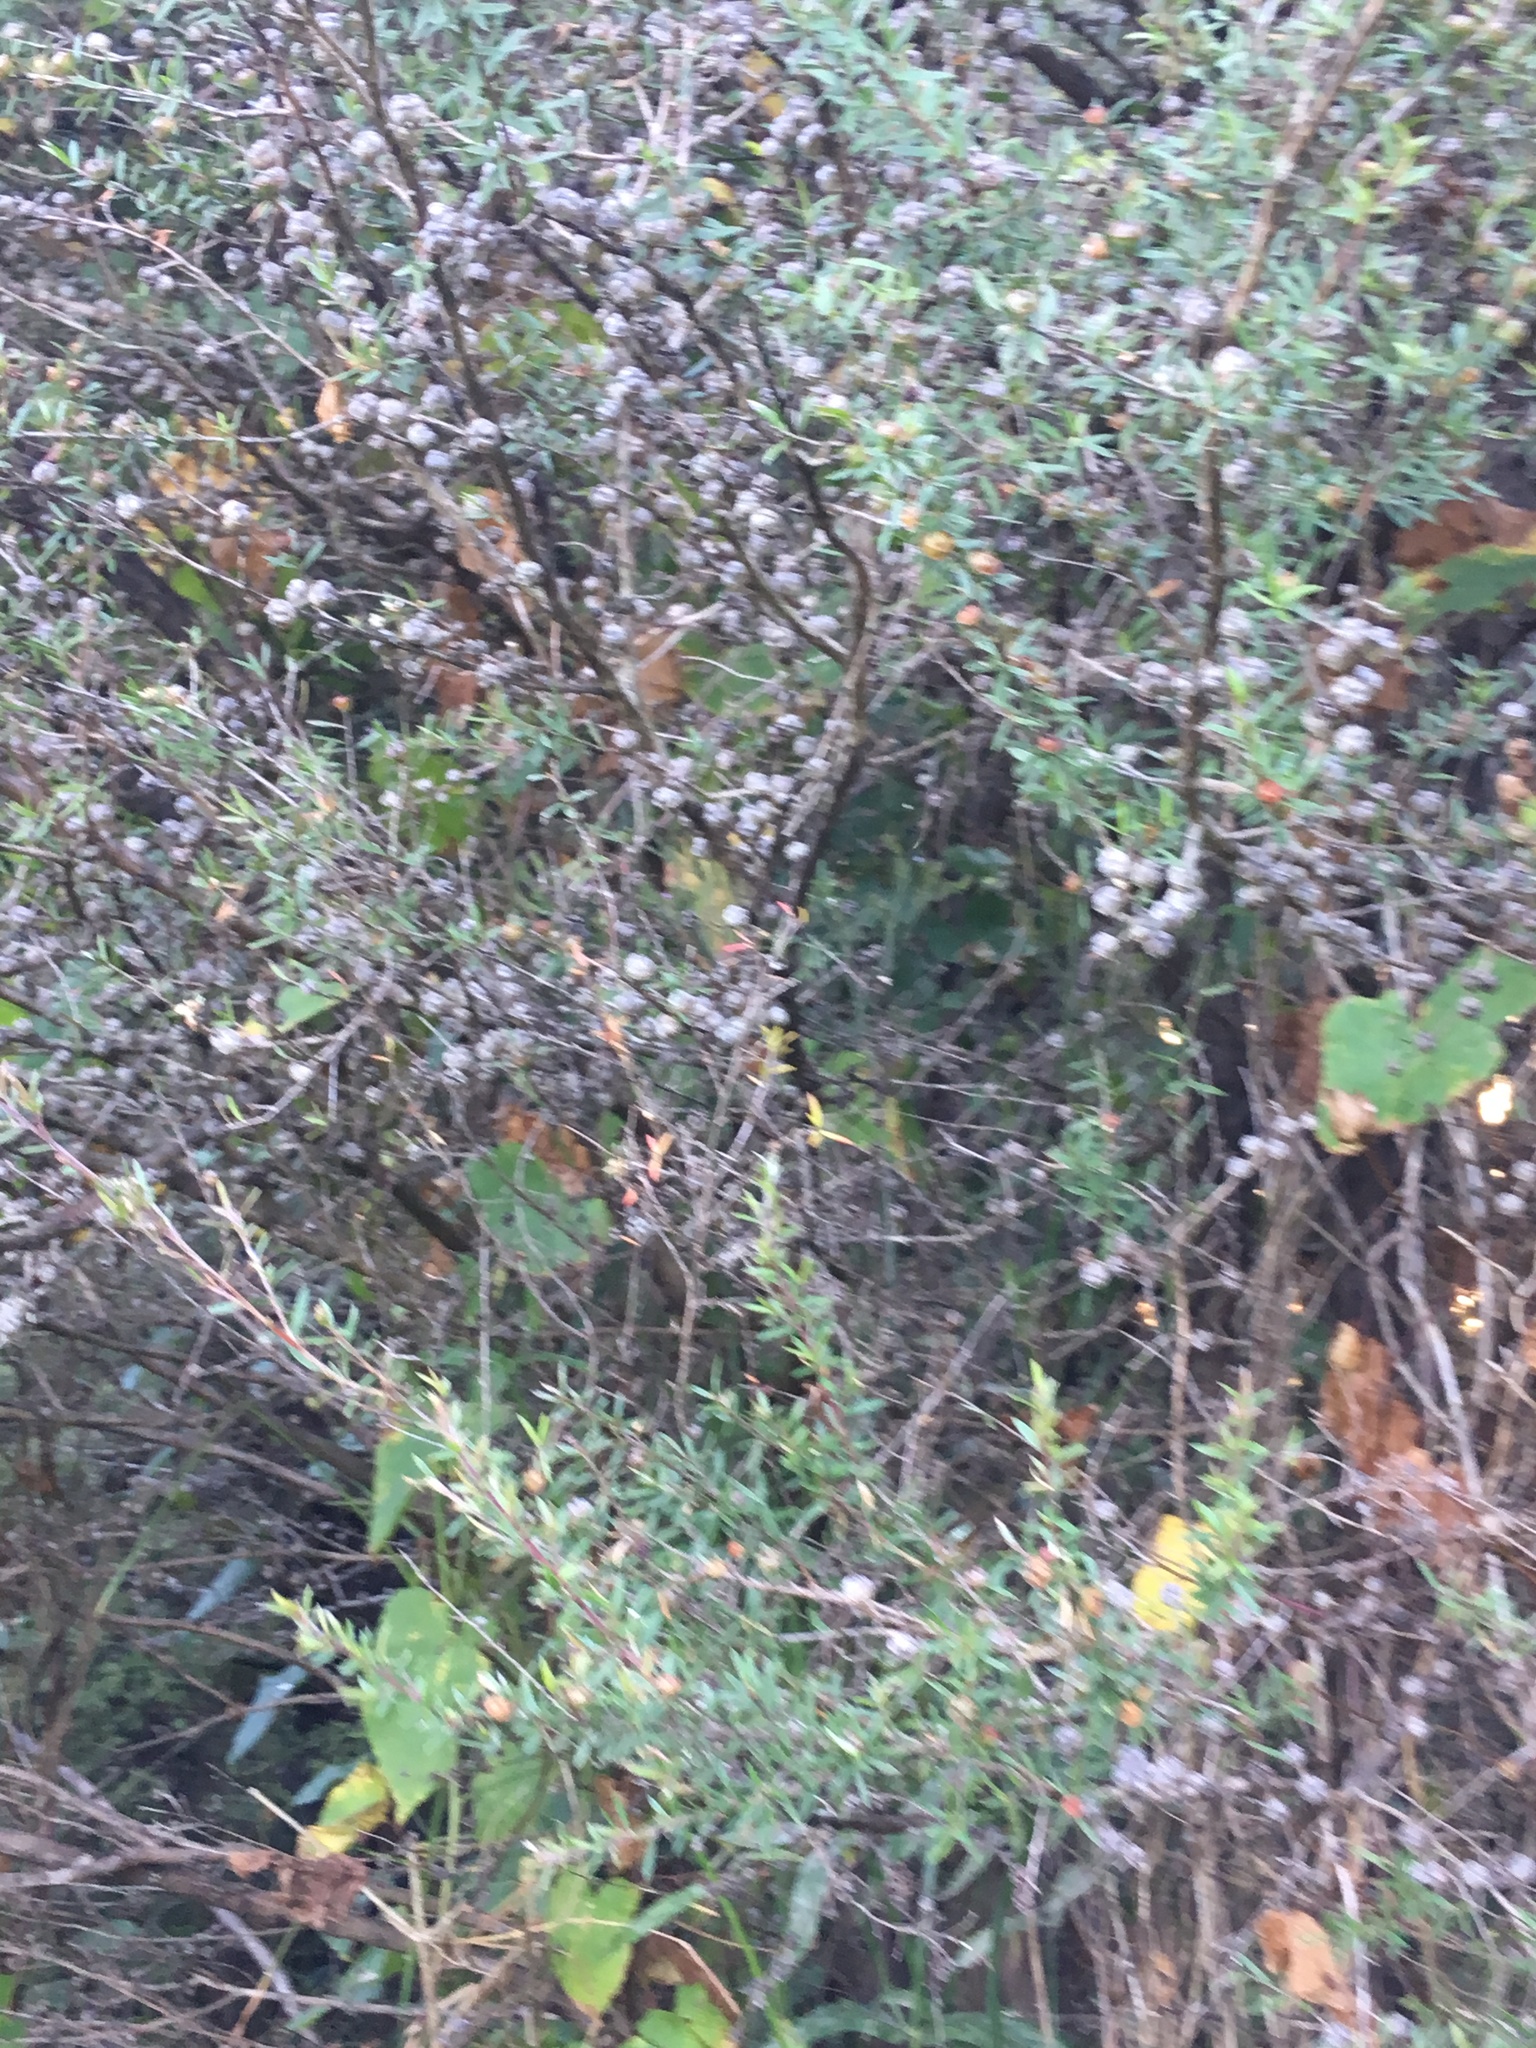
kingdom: Plantae
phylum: Tracheophyta
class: Magnoliopsida
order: Myrtales
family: Myrtaceae
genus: Leptospermum
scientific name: Leptospermum scoparium
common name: Broom tea-tree
